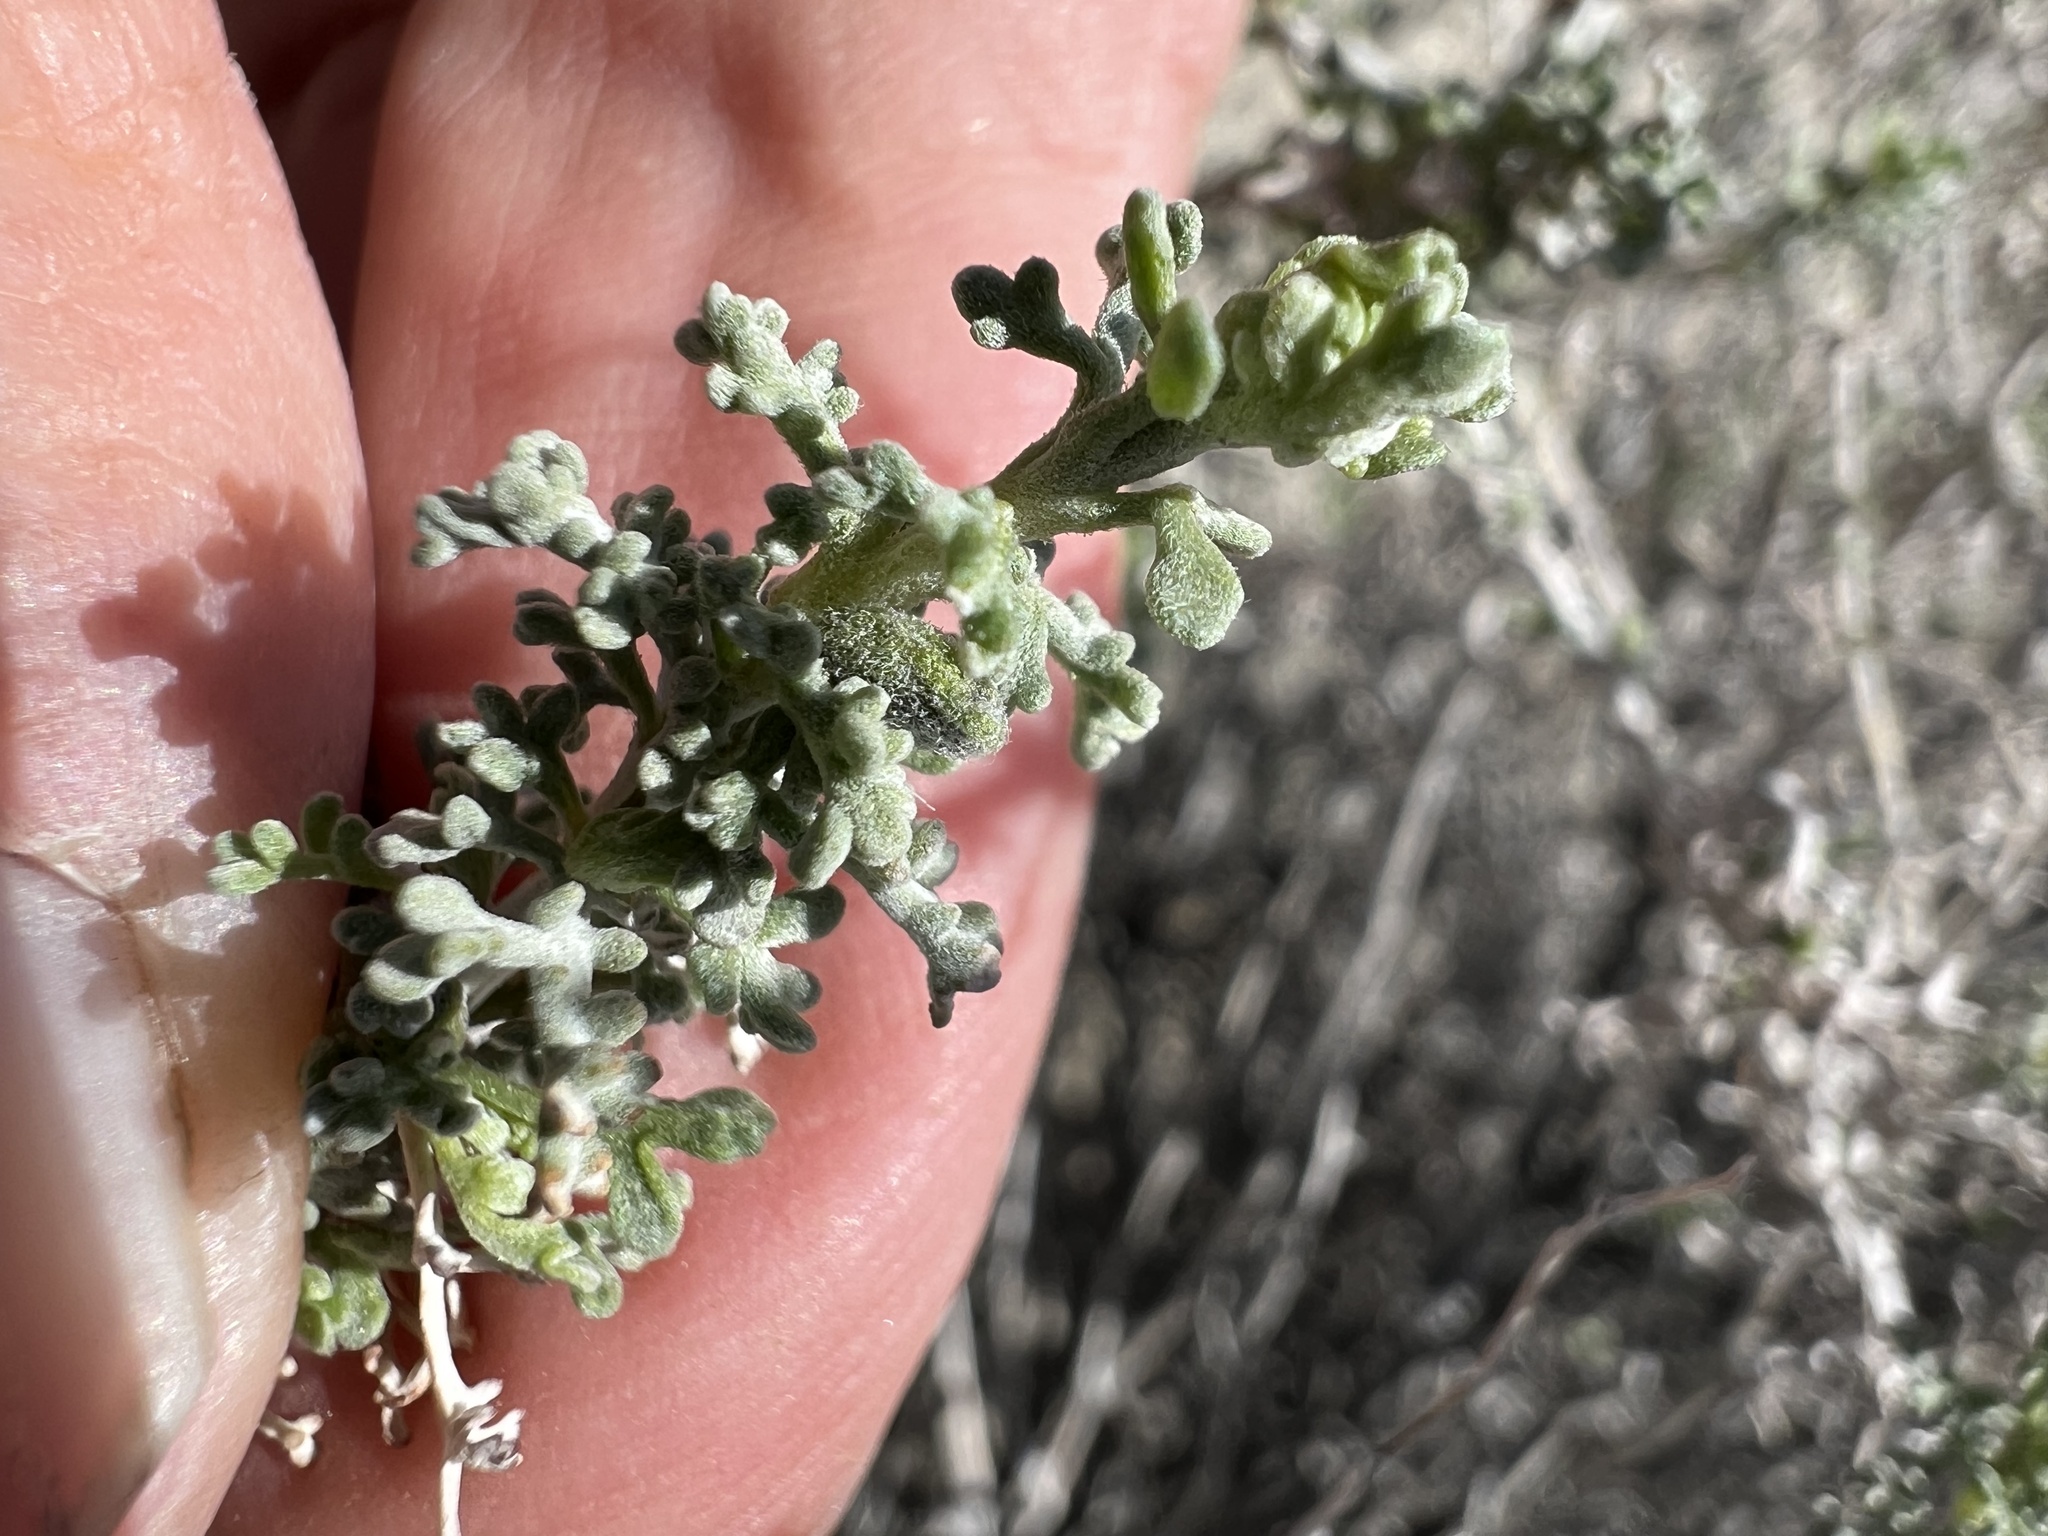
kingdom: Plantae
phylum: Tracheophyta
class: Magnoliopsida
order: Asterales
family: Asteraceae
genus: Ambrosia
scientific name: Ambrosia dumosa
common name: Bur-sage
